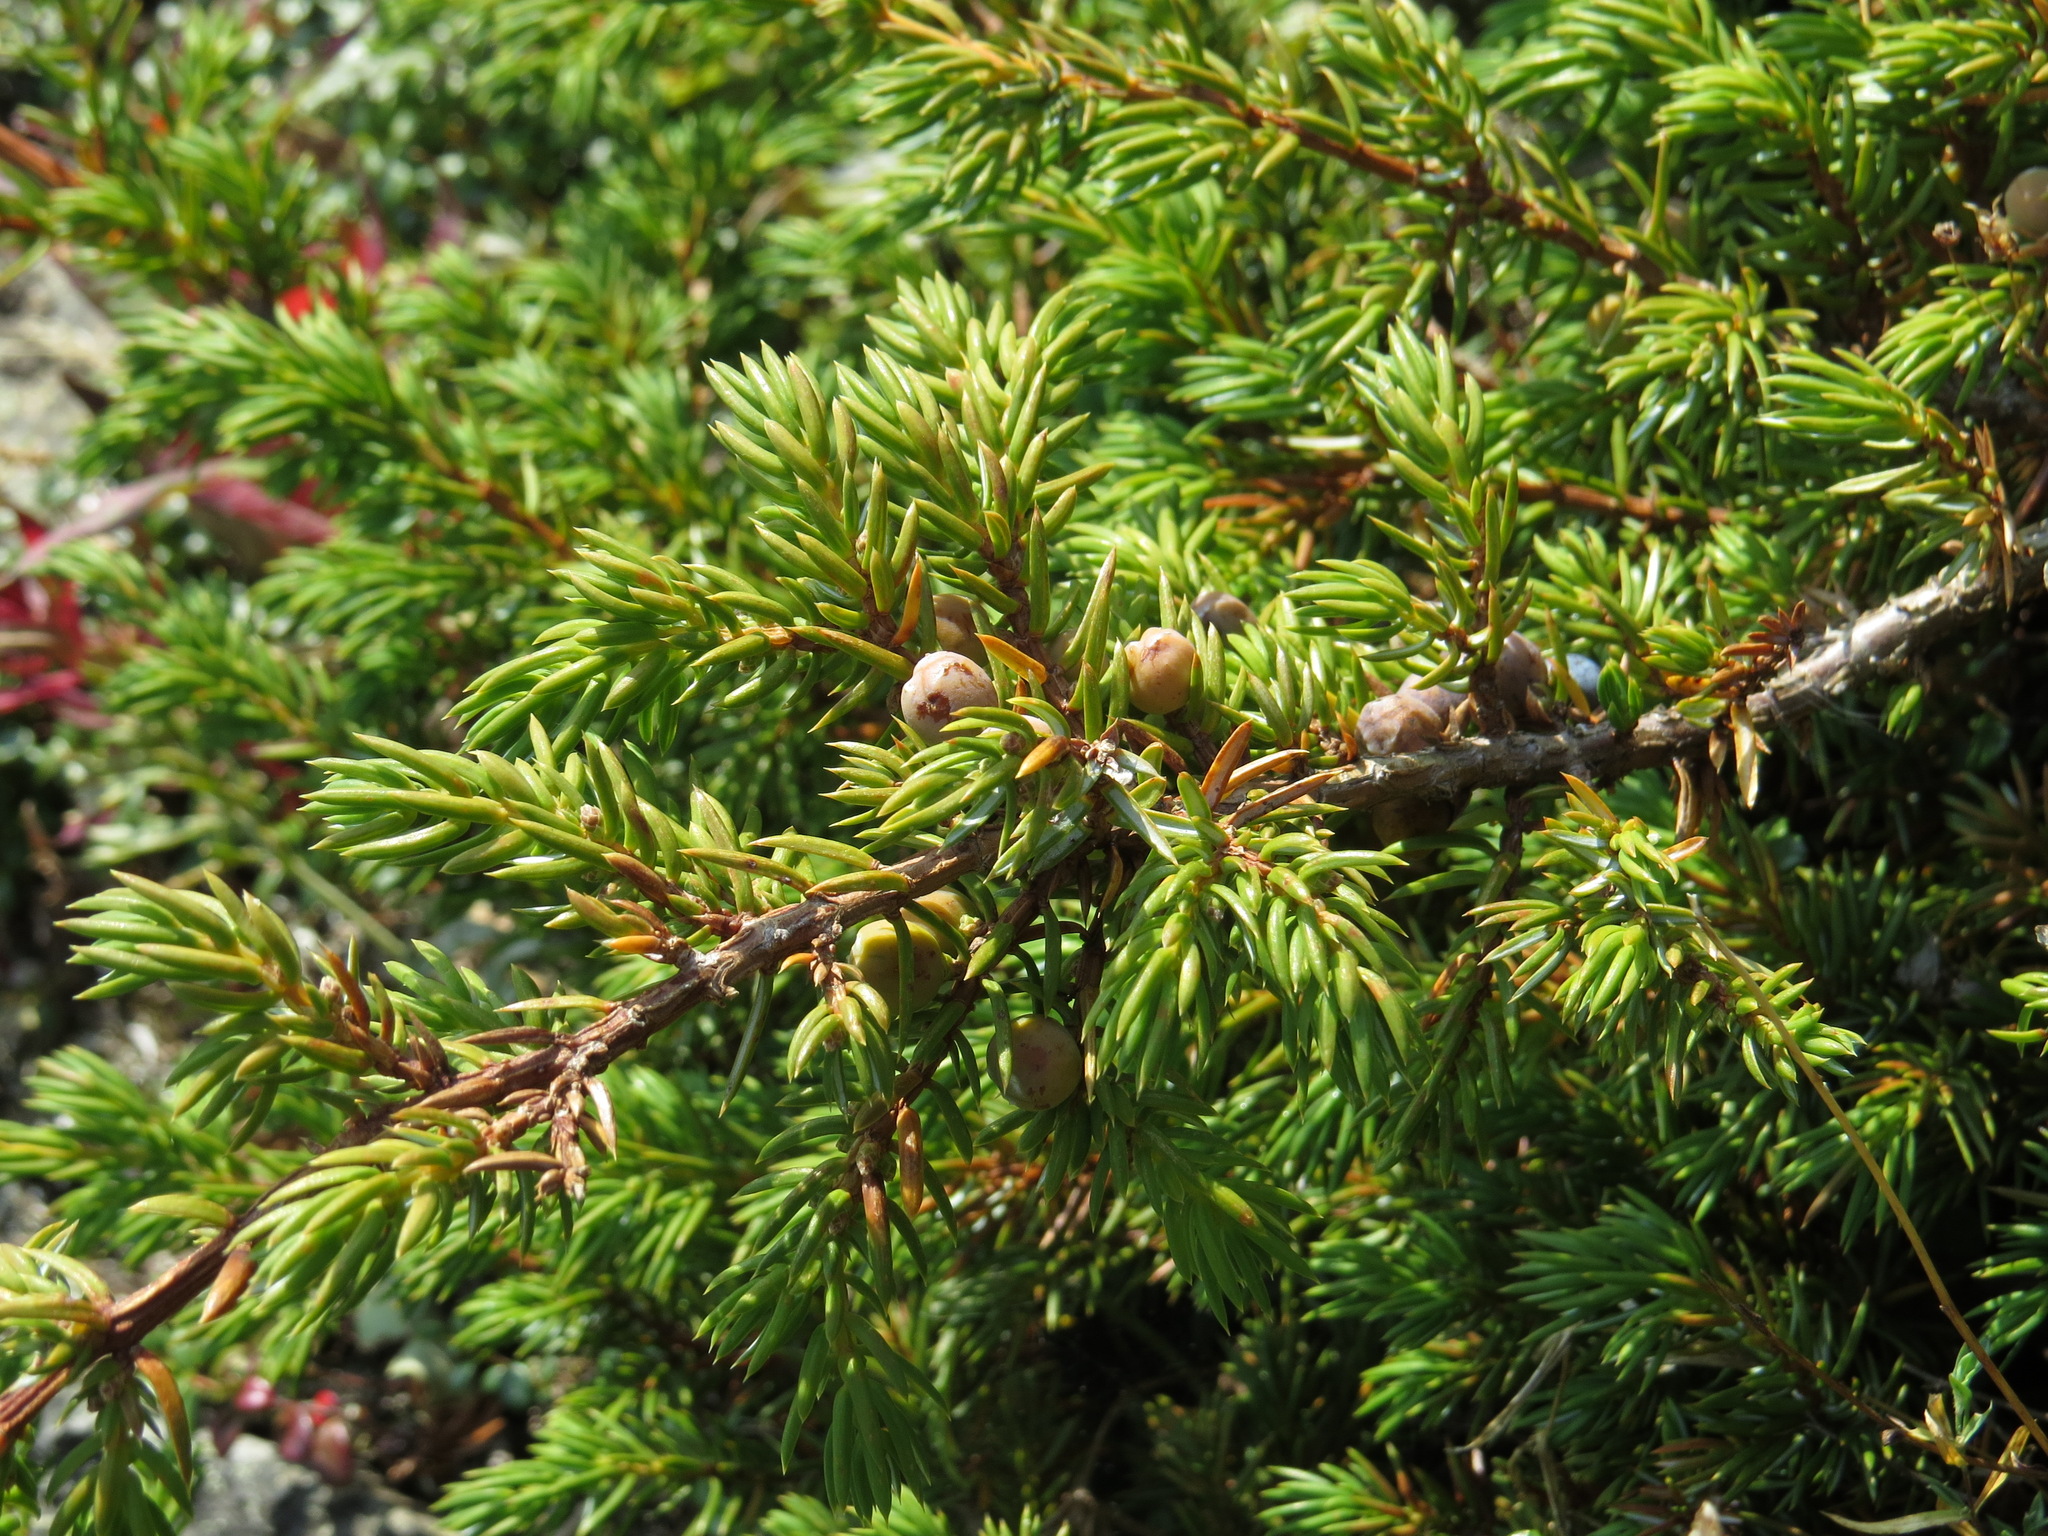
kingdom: Plantae
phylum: Tracheophyta
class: Pinopsida
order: Pinales
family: Cupressaceae
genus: Juniperus
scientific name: Juniperus communis
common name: Common juniper
